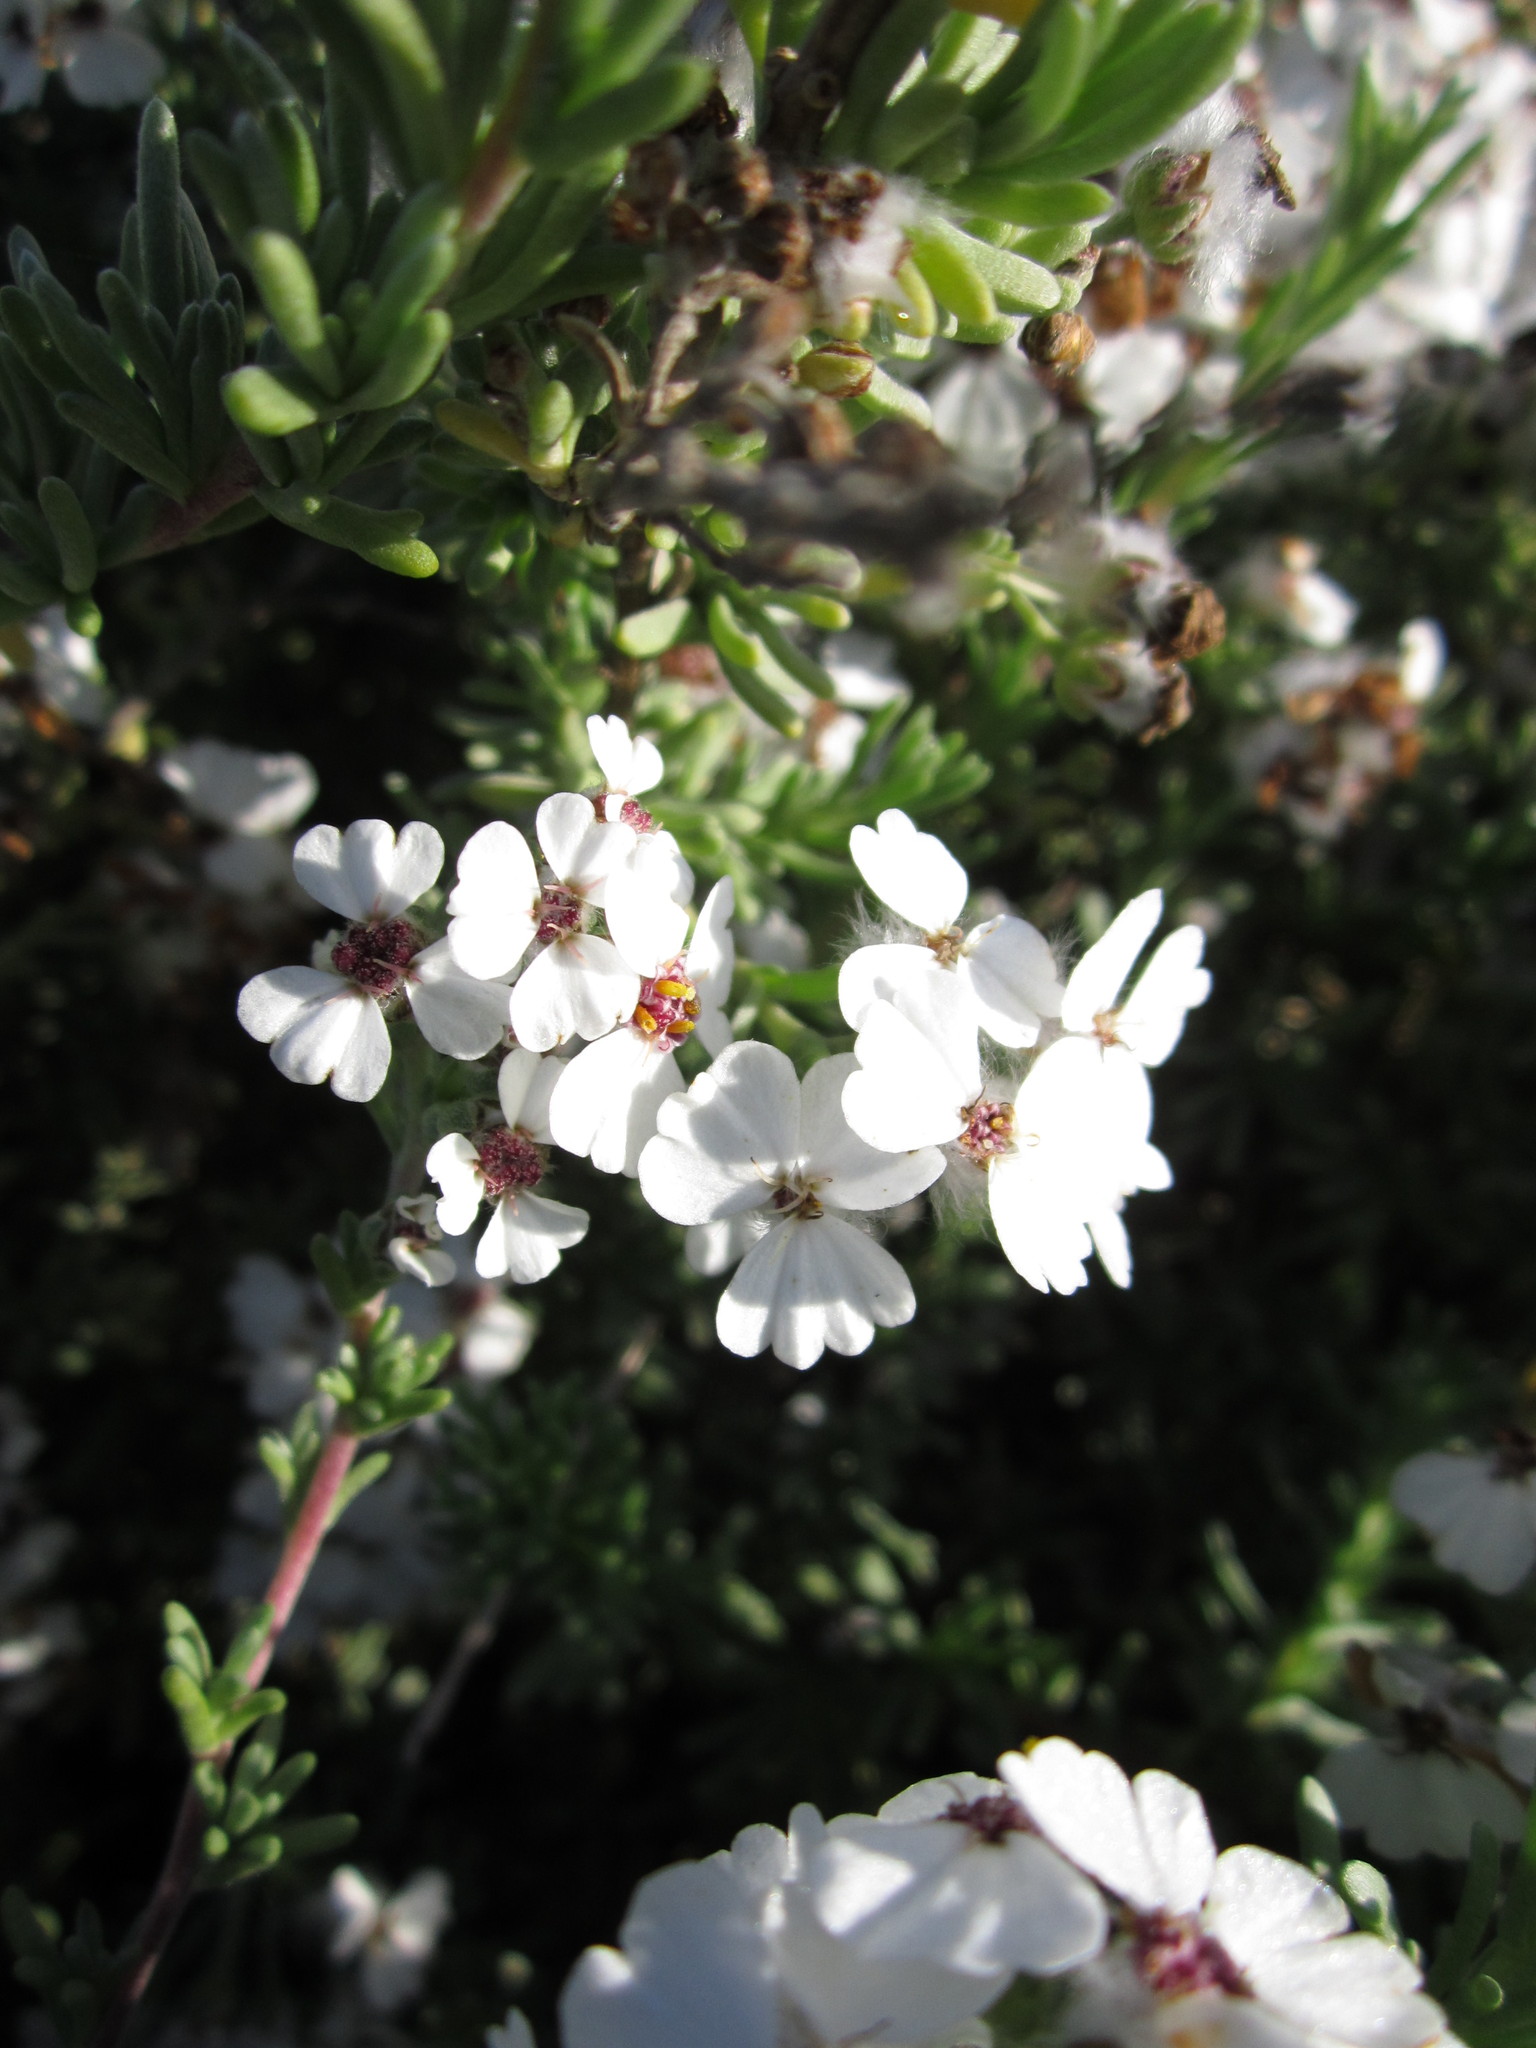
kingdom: Plantae
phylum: Tracheophyta
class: Magnoliopsida
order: Asterales
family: Asteraceae
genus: Eriocephalus
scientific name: Eriocephalus africanus
